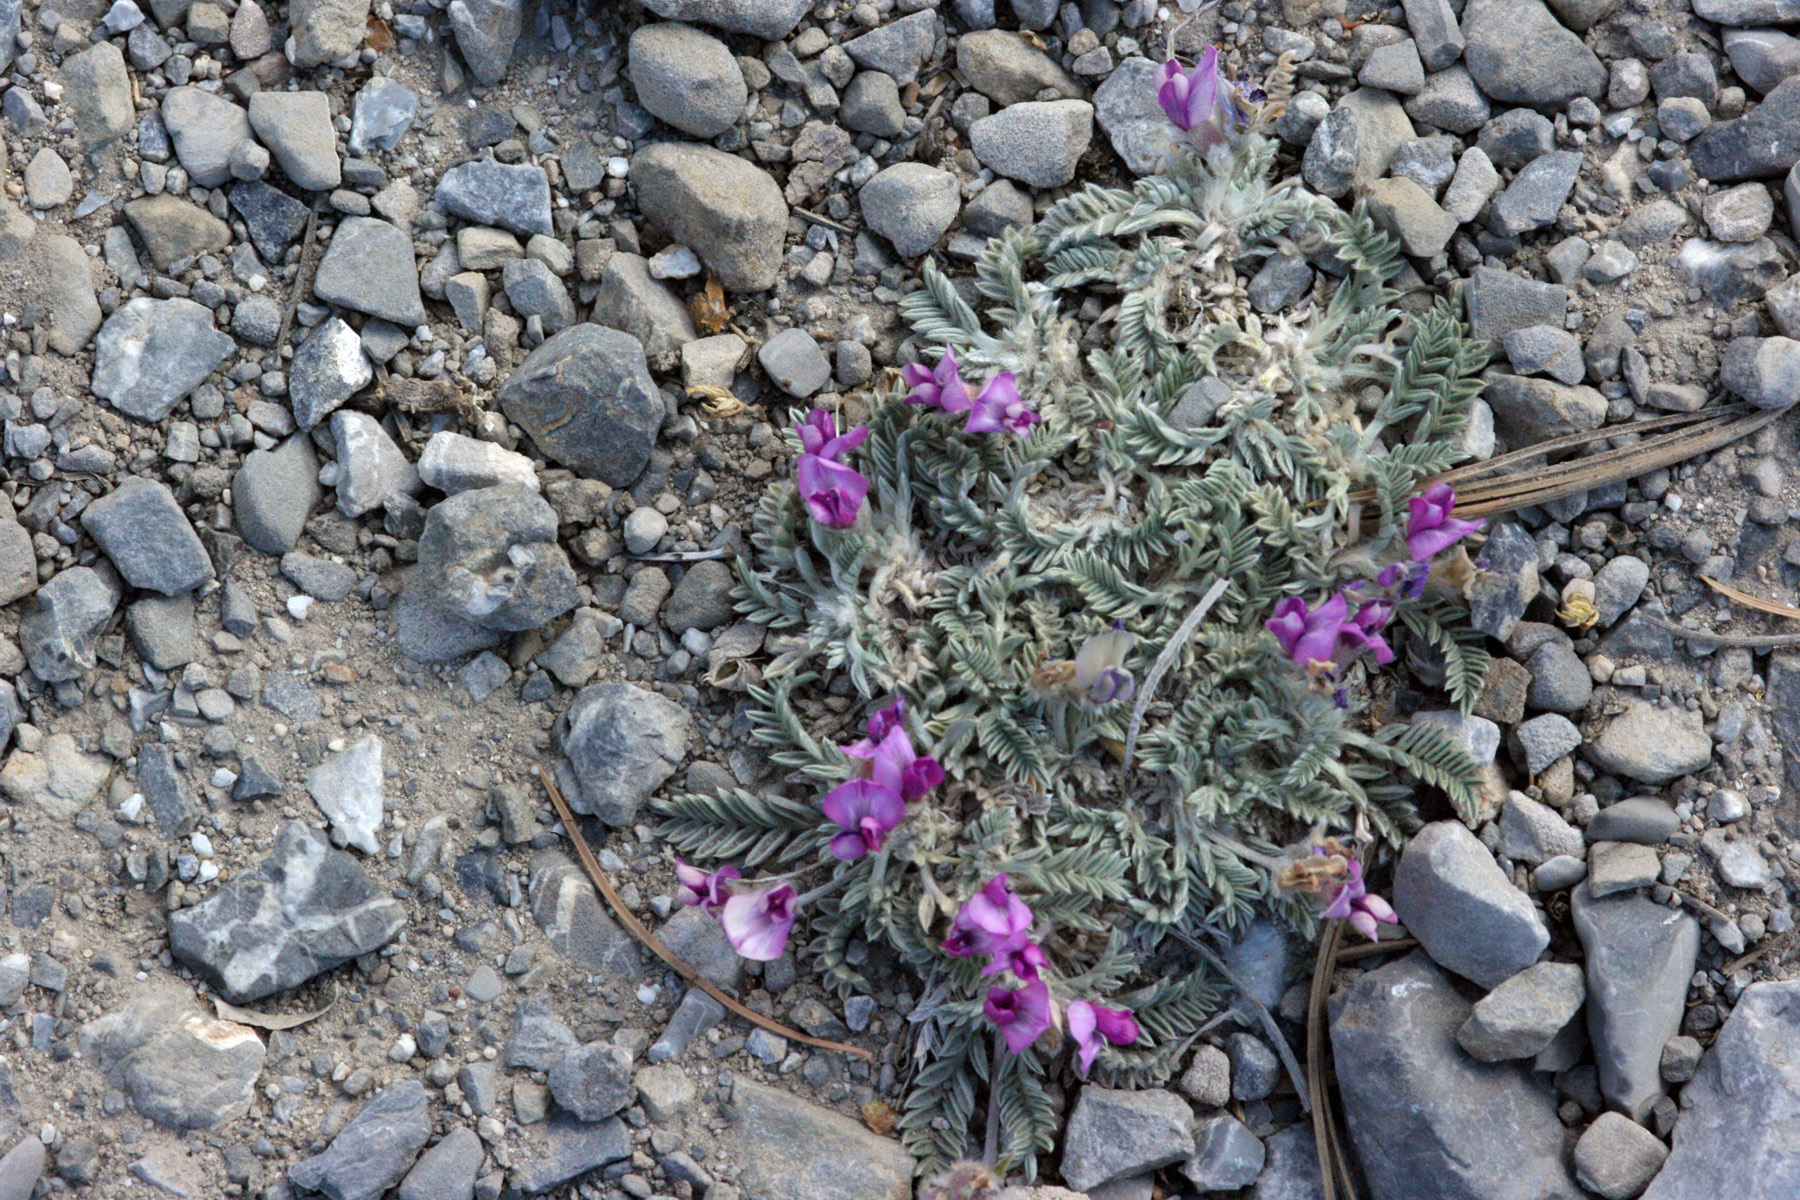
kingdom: Plantae
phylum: Tracheophyta
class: Magnoliopsida
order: Fabales
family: Fabaceae
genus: Oxytropis
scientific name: Oxytropis oreophila
